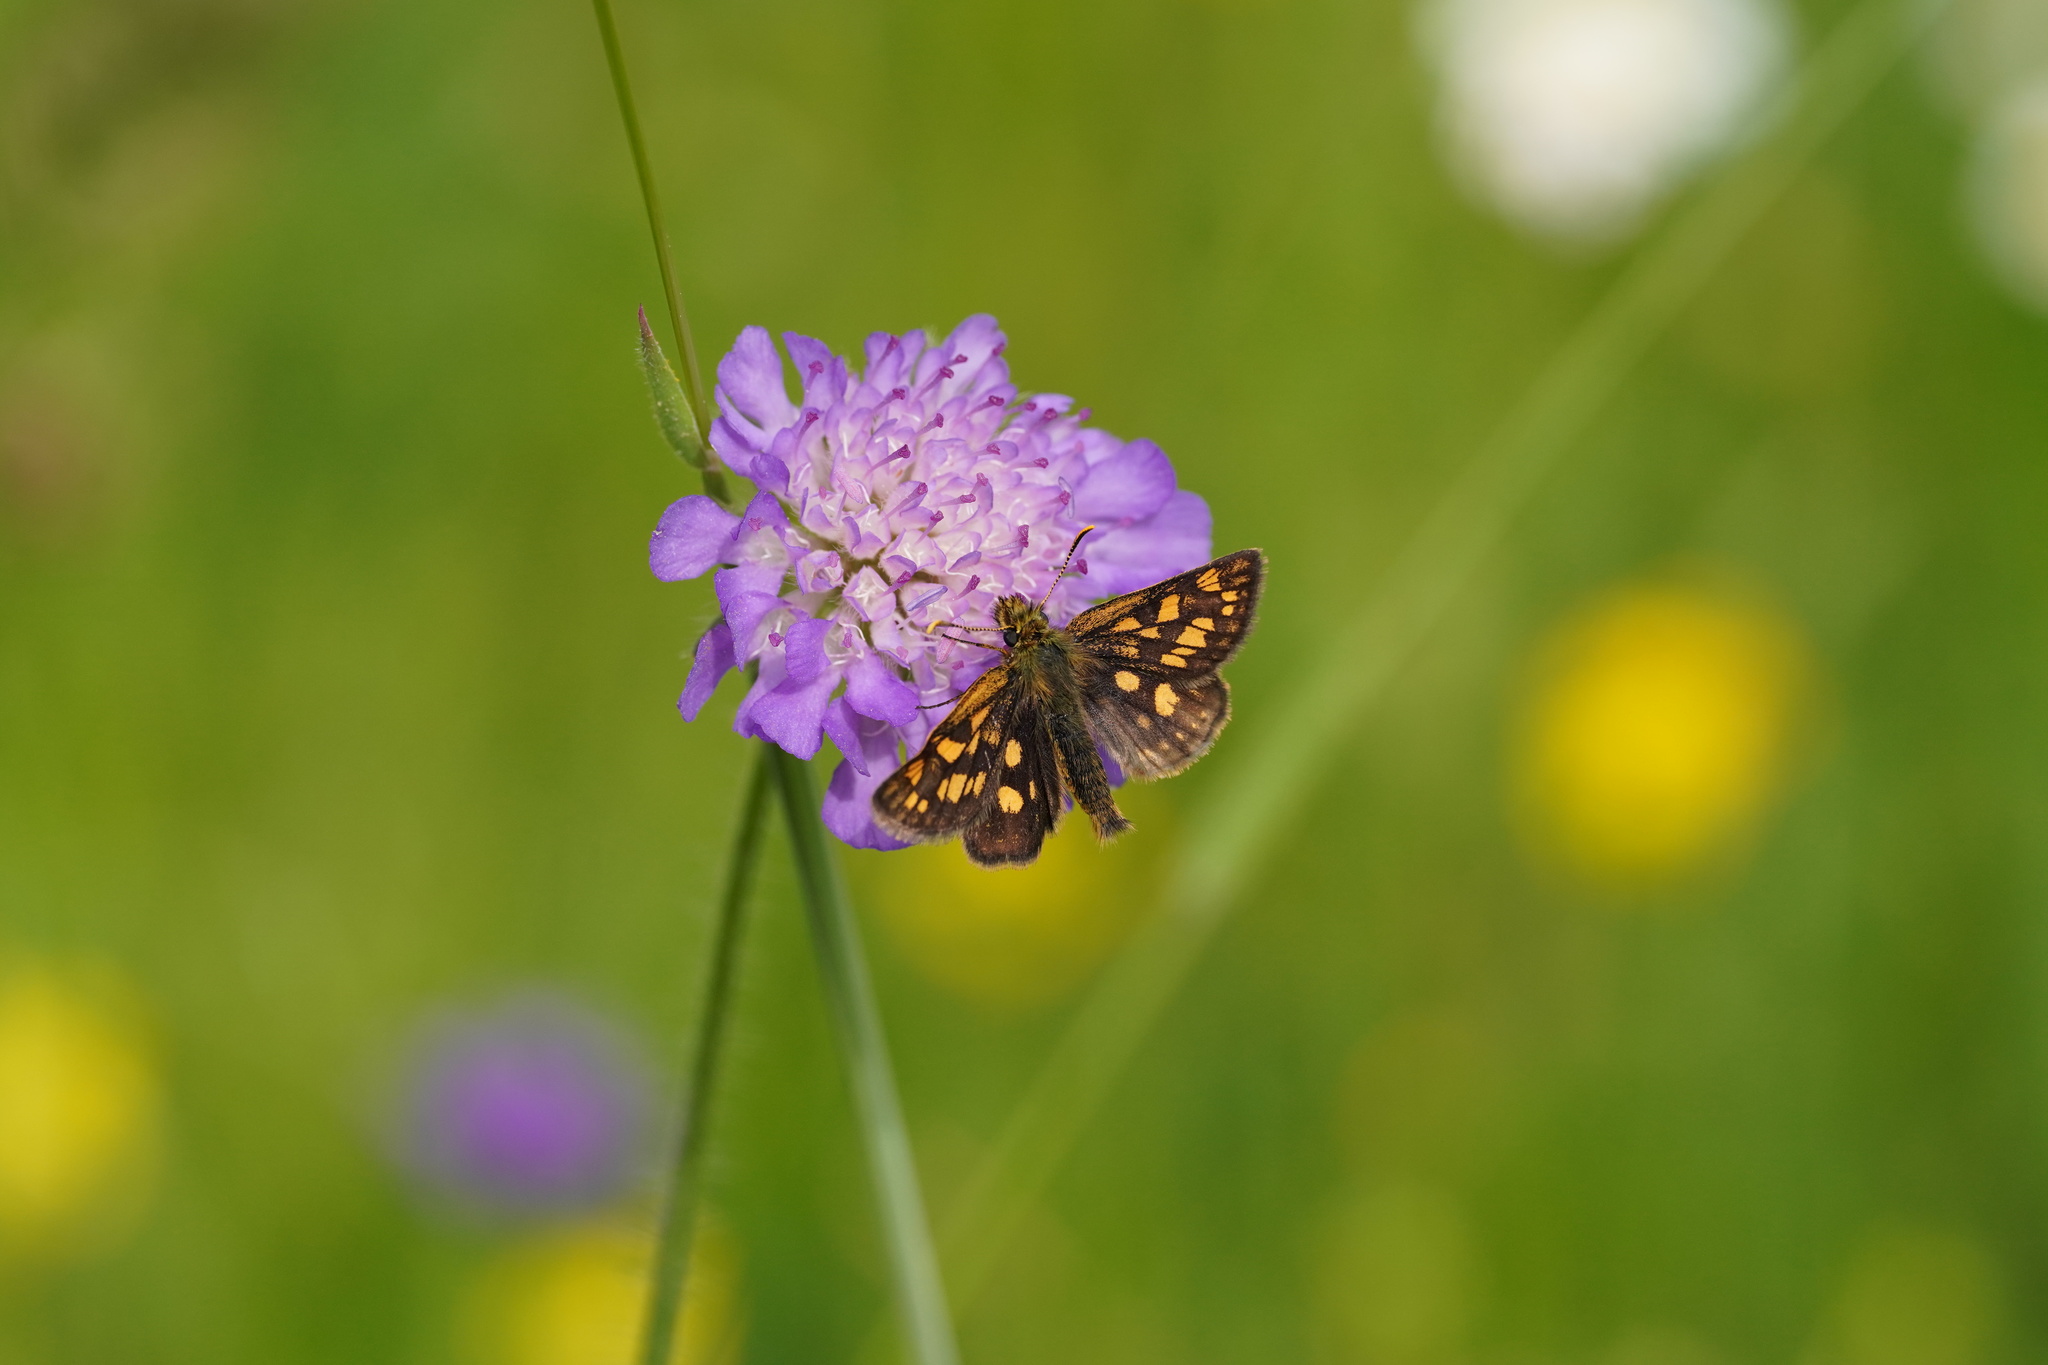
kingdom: Animalia
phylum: Arthropoda
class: Insecta
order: Lepidoptera
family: Hesperiidae
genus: Carterocephalus
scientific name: Carterocephalus palaemon
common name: Chequered skipper
